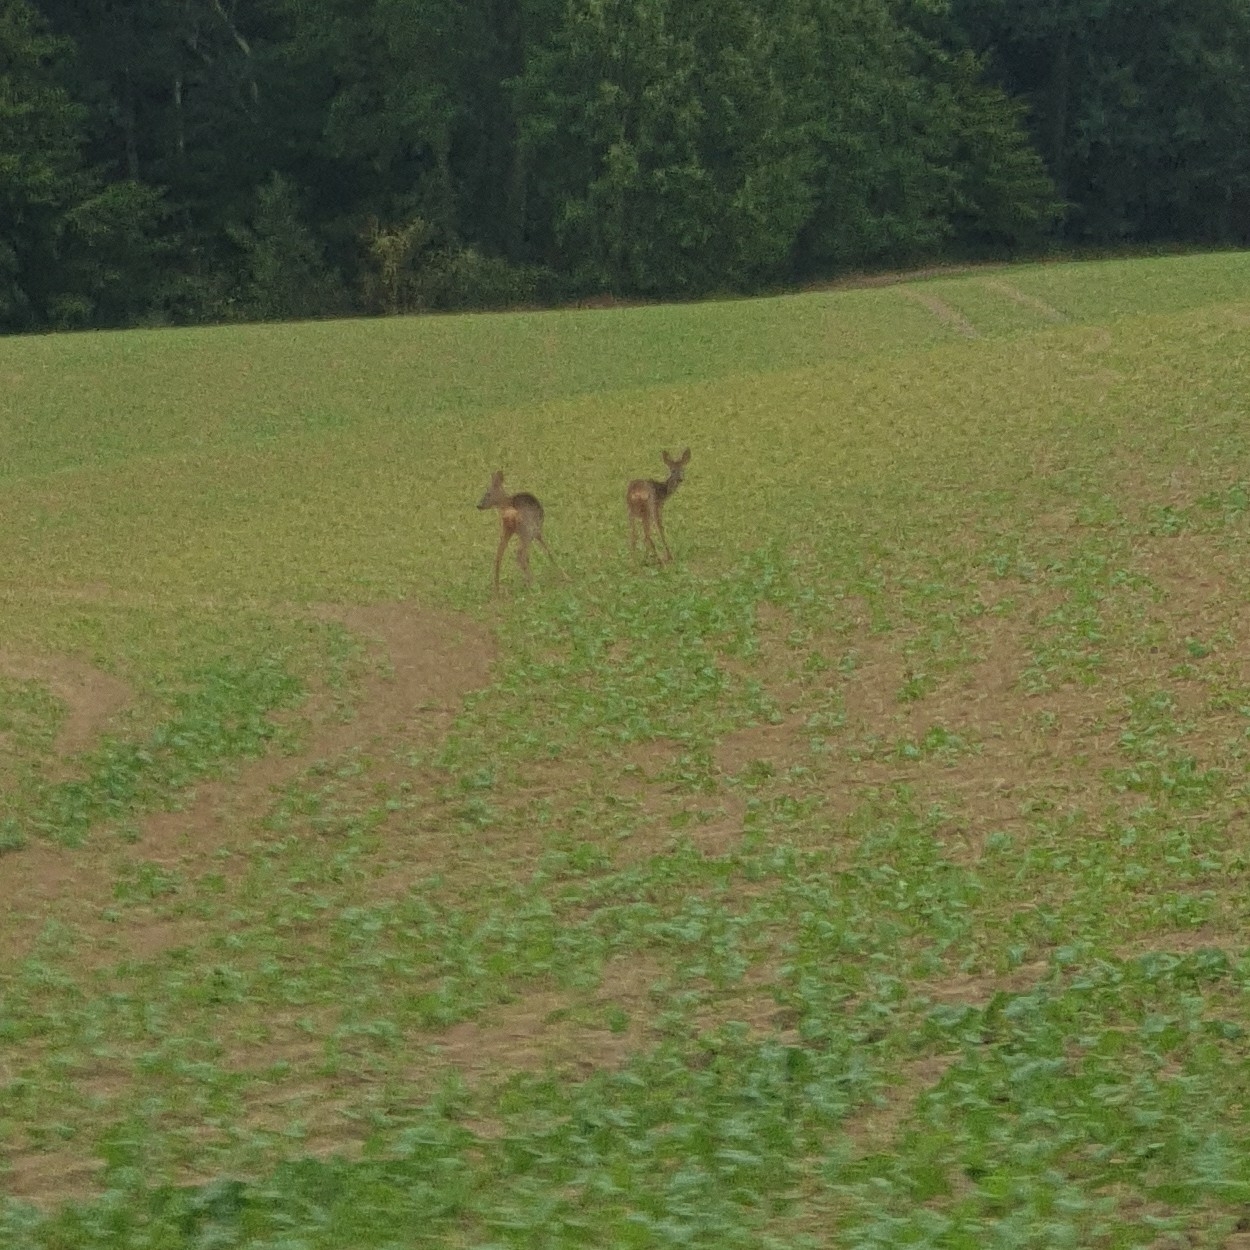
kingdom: Animalia
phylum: Chordata
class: Mammalia
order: Artiodactyla
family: Cervidae
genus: Capreolus
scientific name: Capreolus capreolus
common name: Western roe deer
